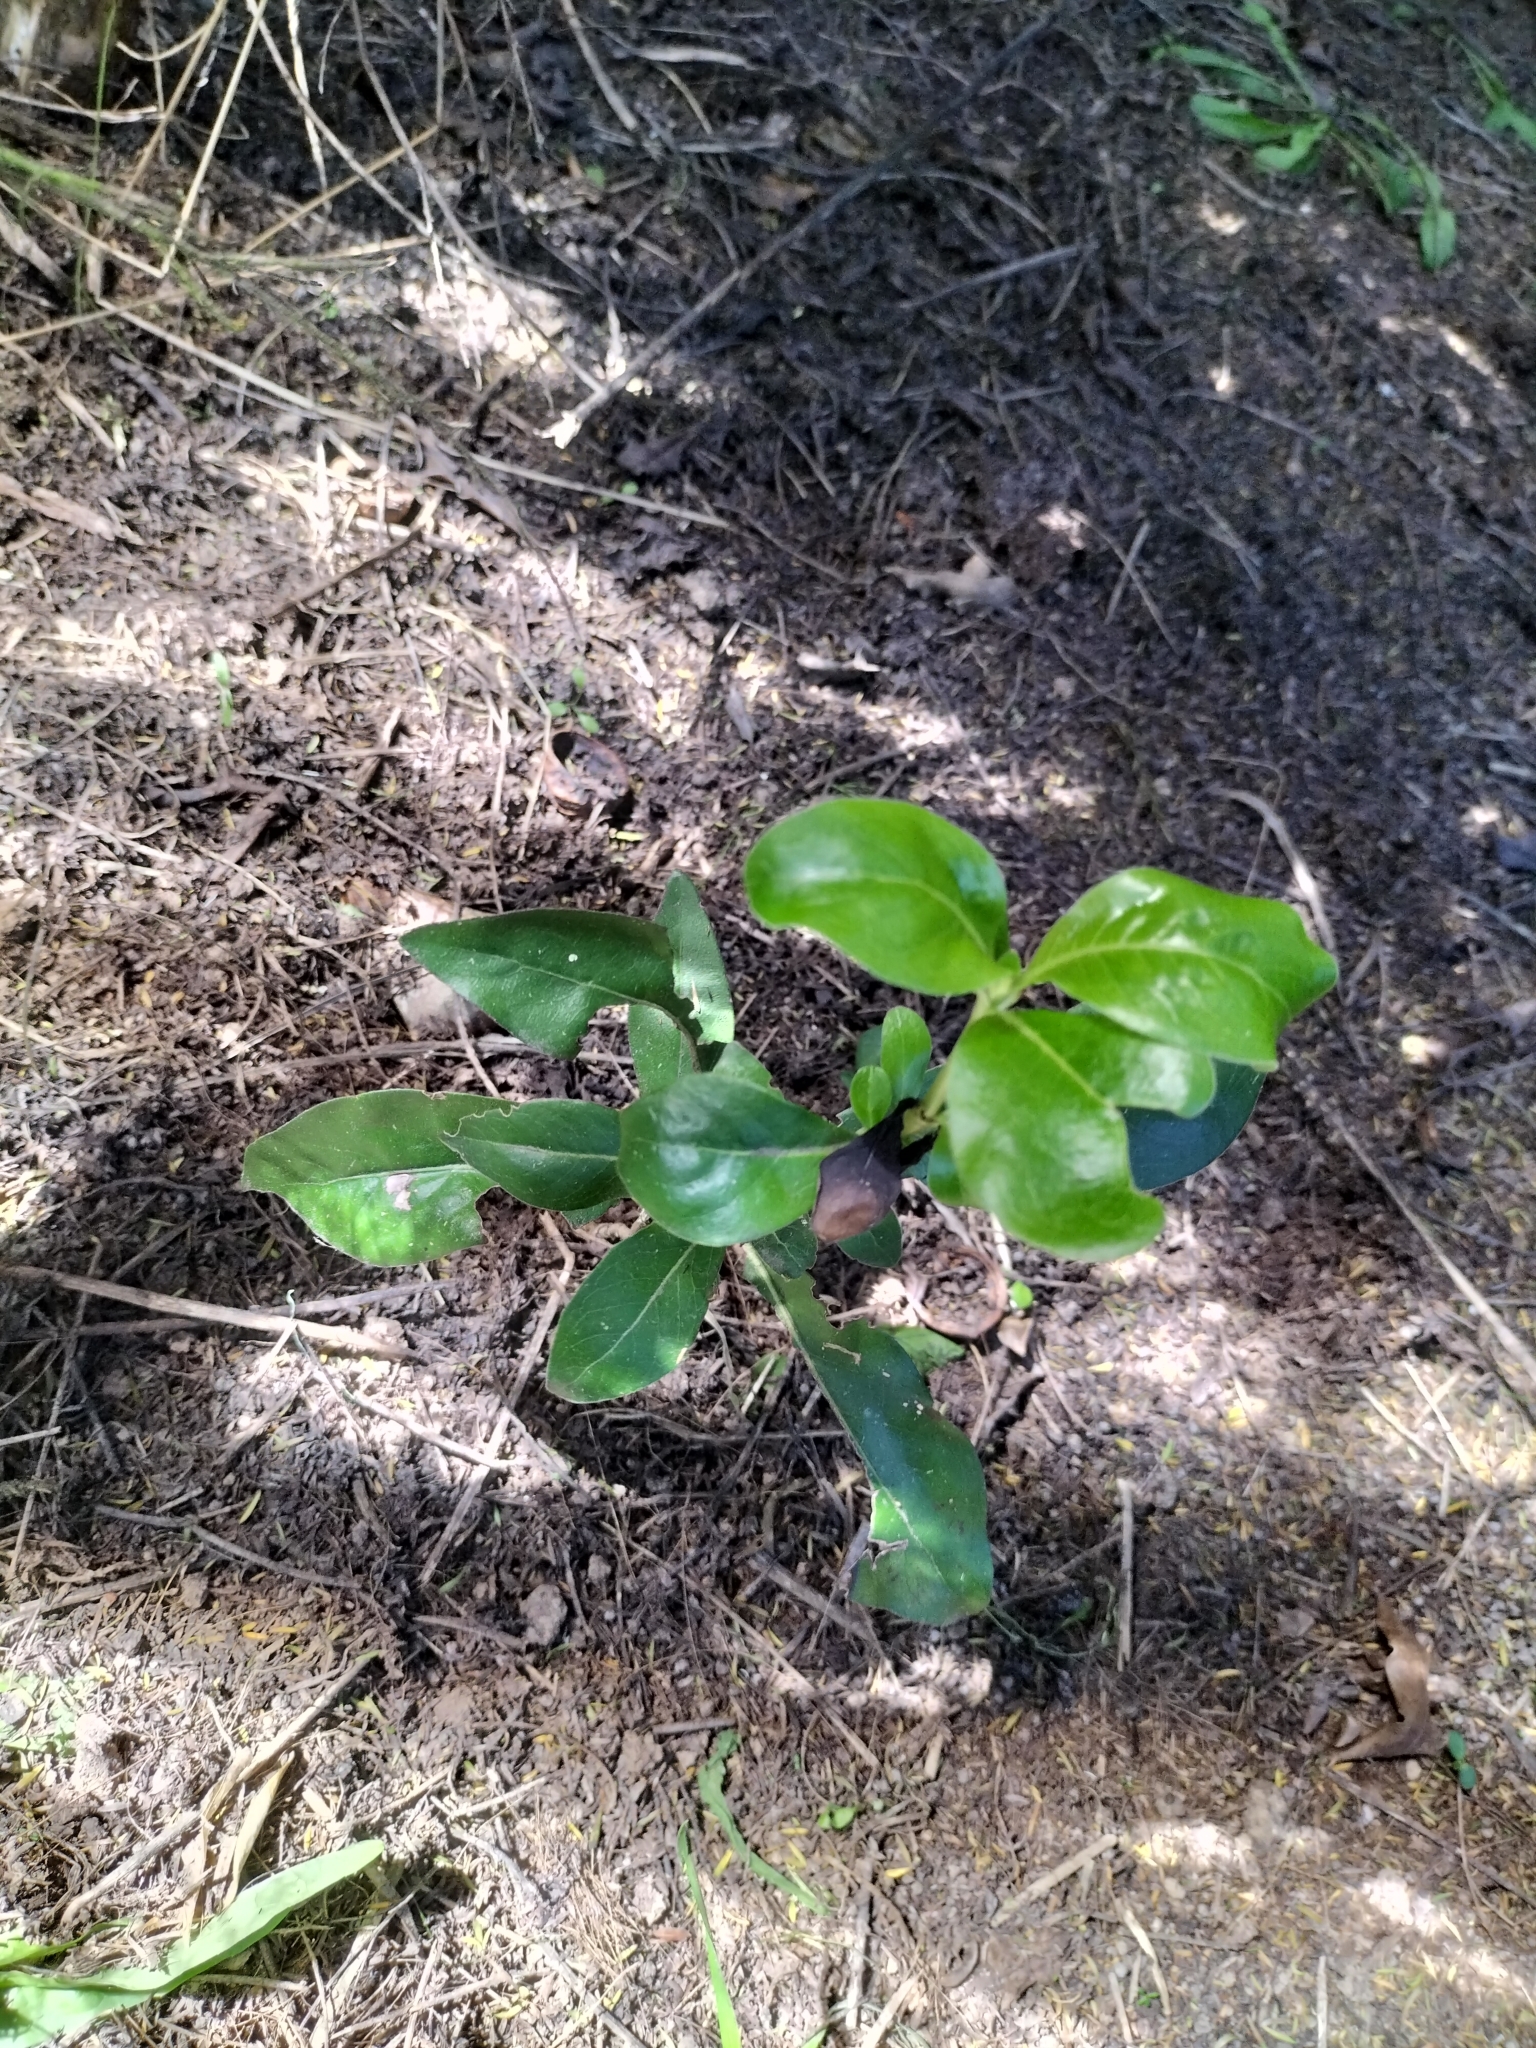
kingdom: Plantae
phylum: Tracheophyta
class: Magnoliopsida
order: Gentianales
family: Rubiaceae
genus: Coprosma
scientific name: Coprosma robusta
